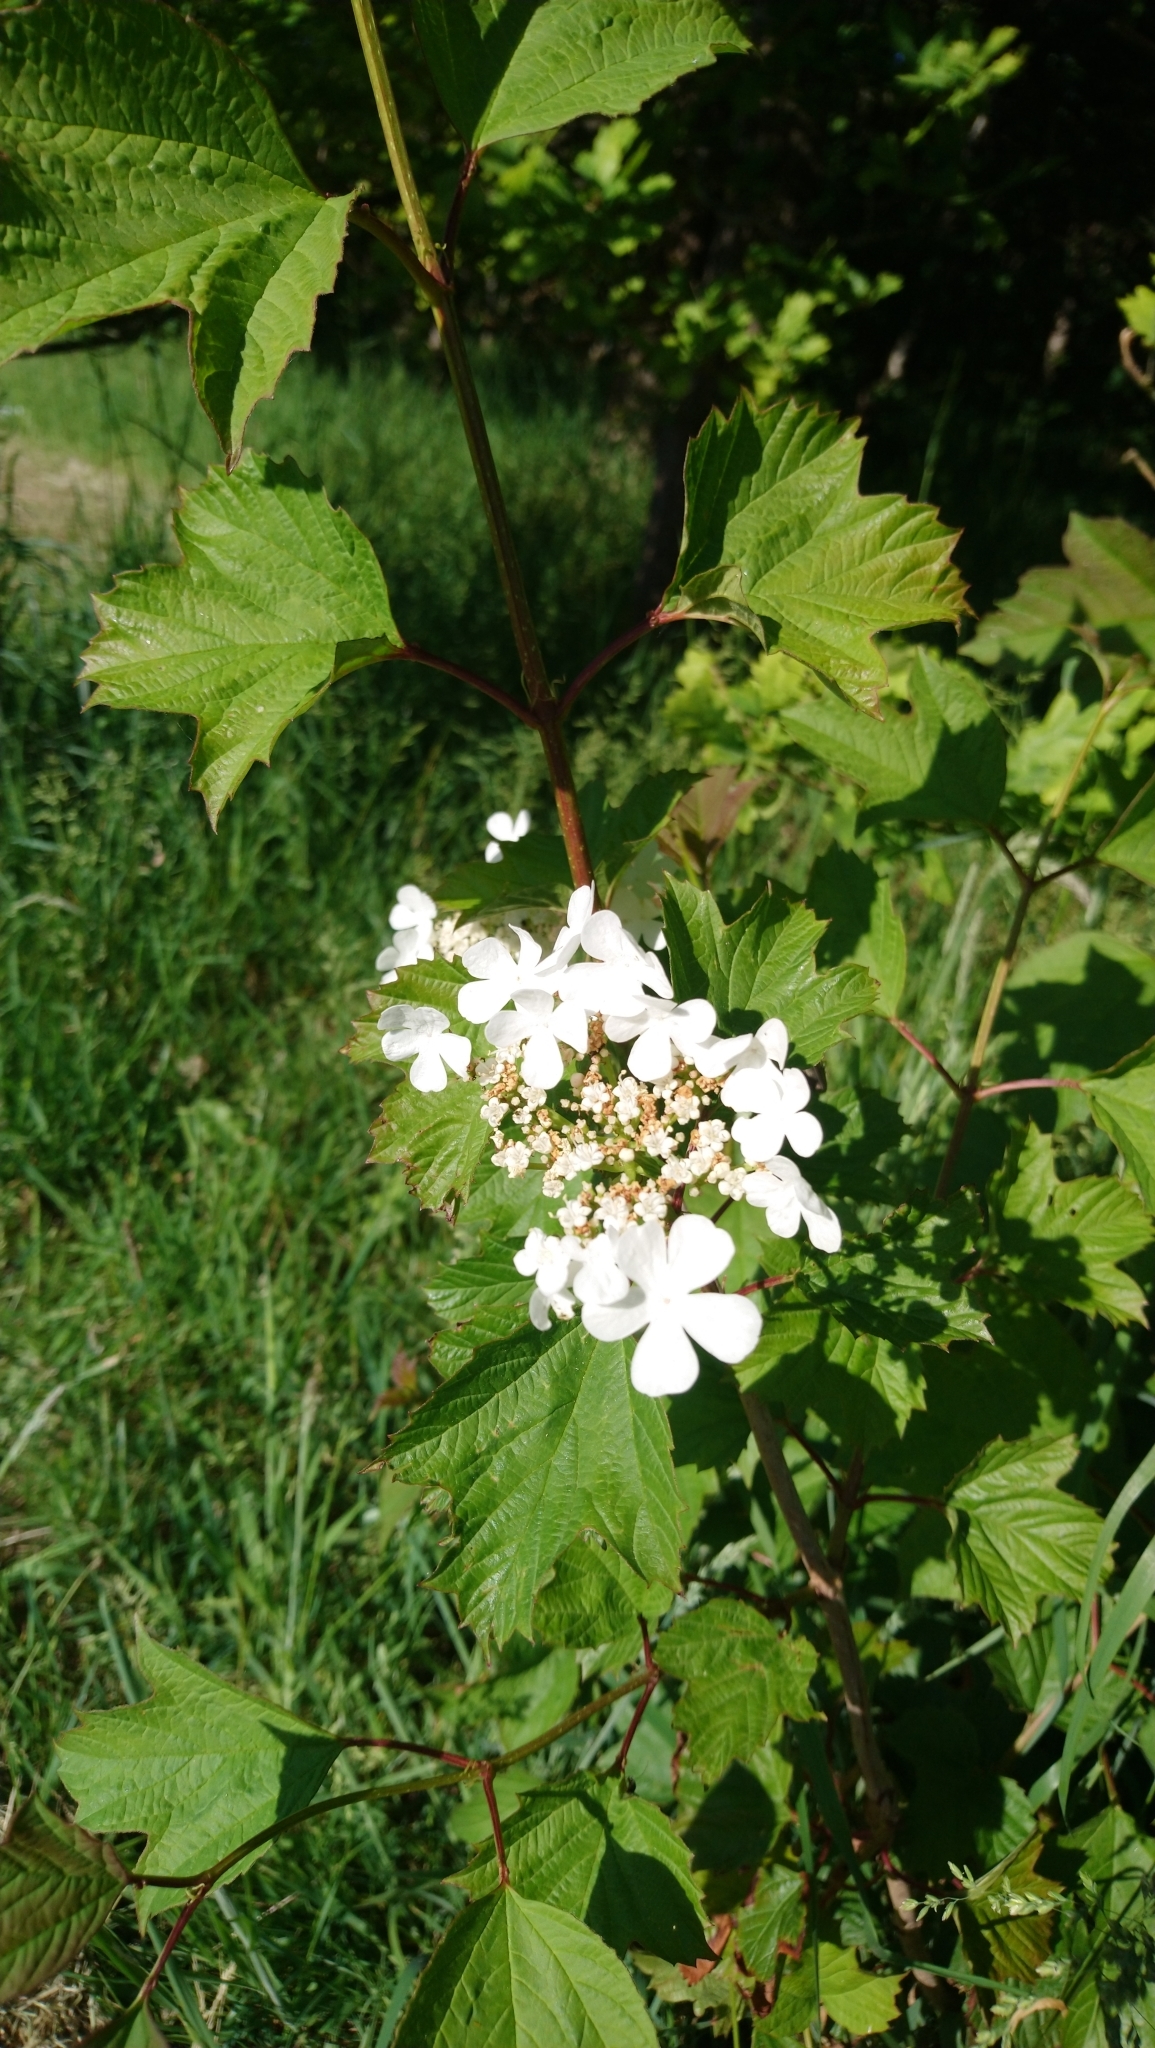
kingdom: Plantae
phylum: Tracheophyta
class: Magnoliopsida
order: Dipsacales
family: Viburnaceae
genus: Viburnum
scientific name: Viburnum opulus
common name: Guelder-rose
